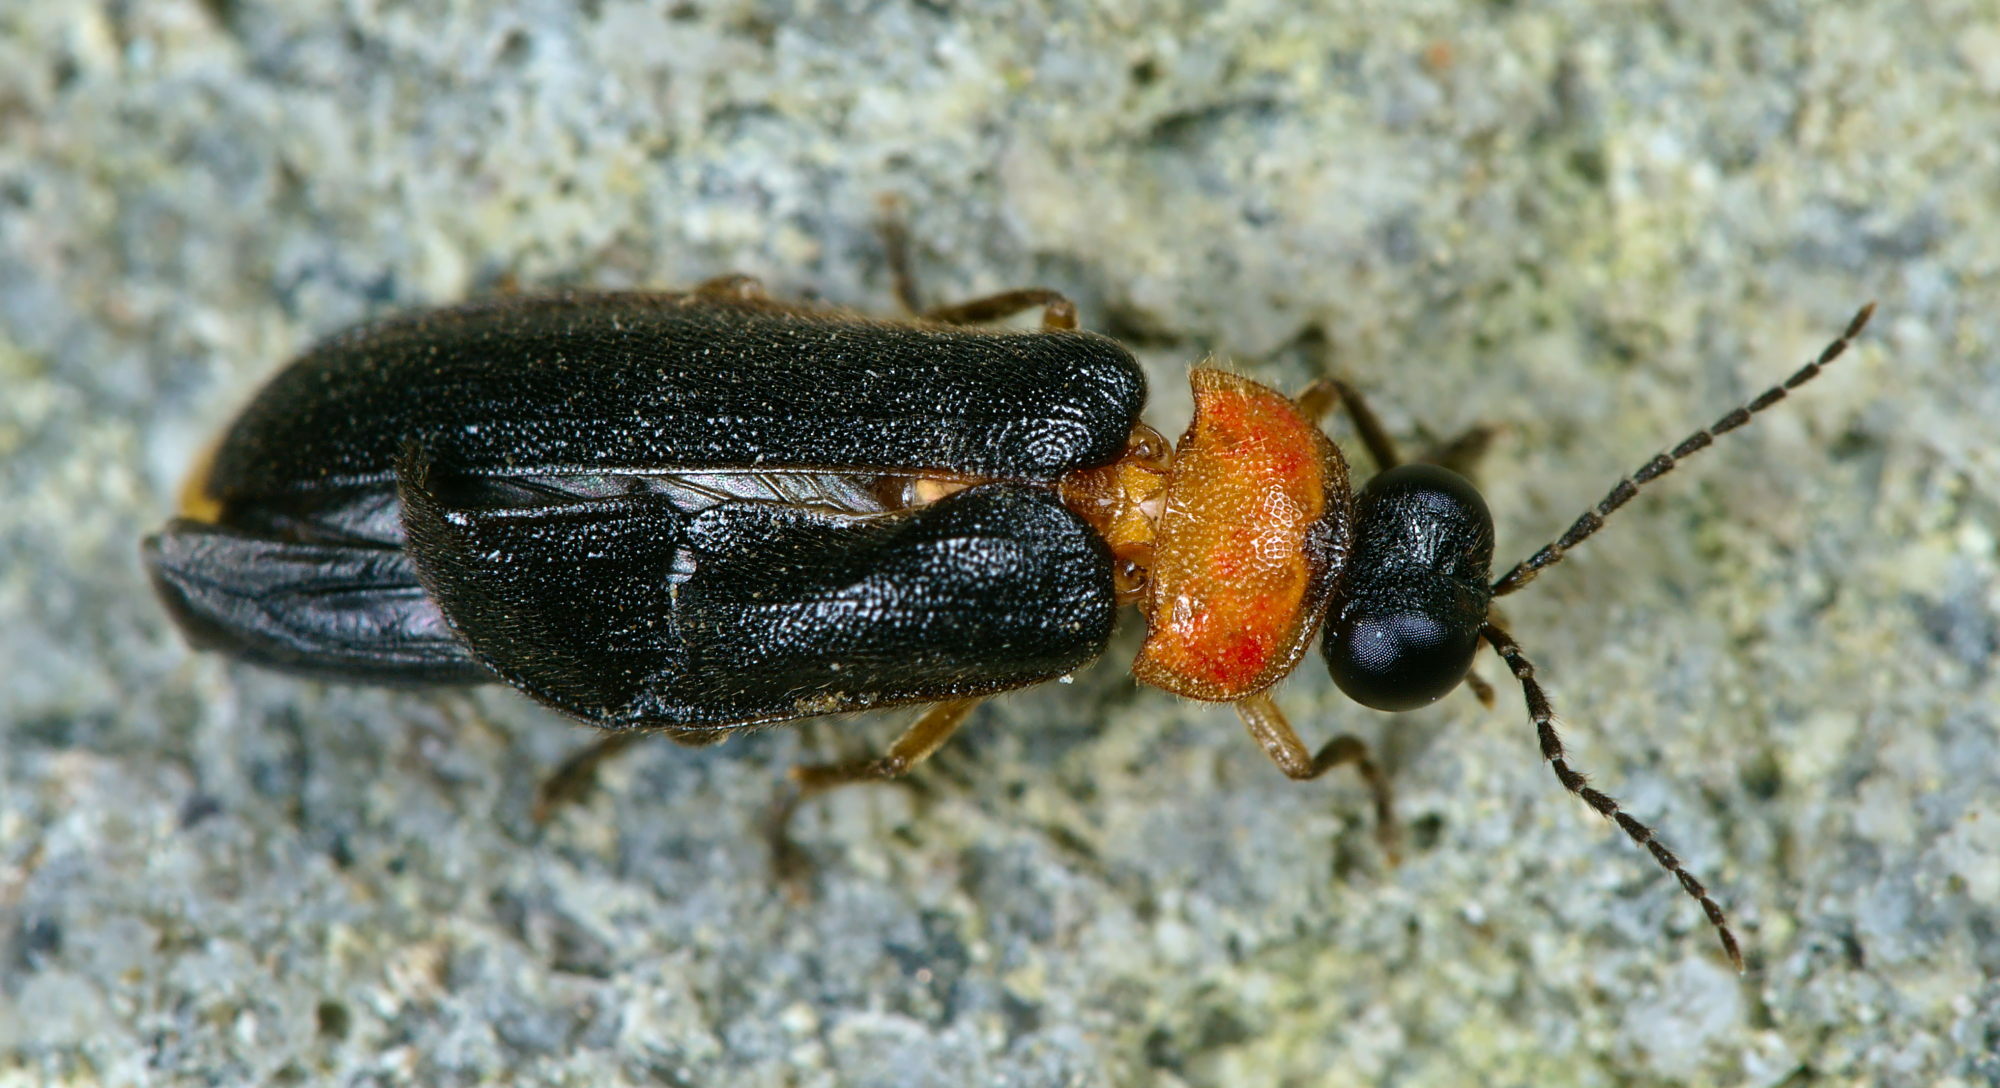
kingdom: Animalia
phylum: Arthropoda
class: Insecta
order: Coleoptera
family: Lampyridae
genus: Luciola
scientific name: Luciola lusitanica
